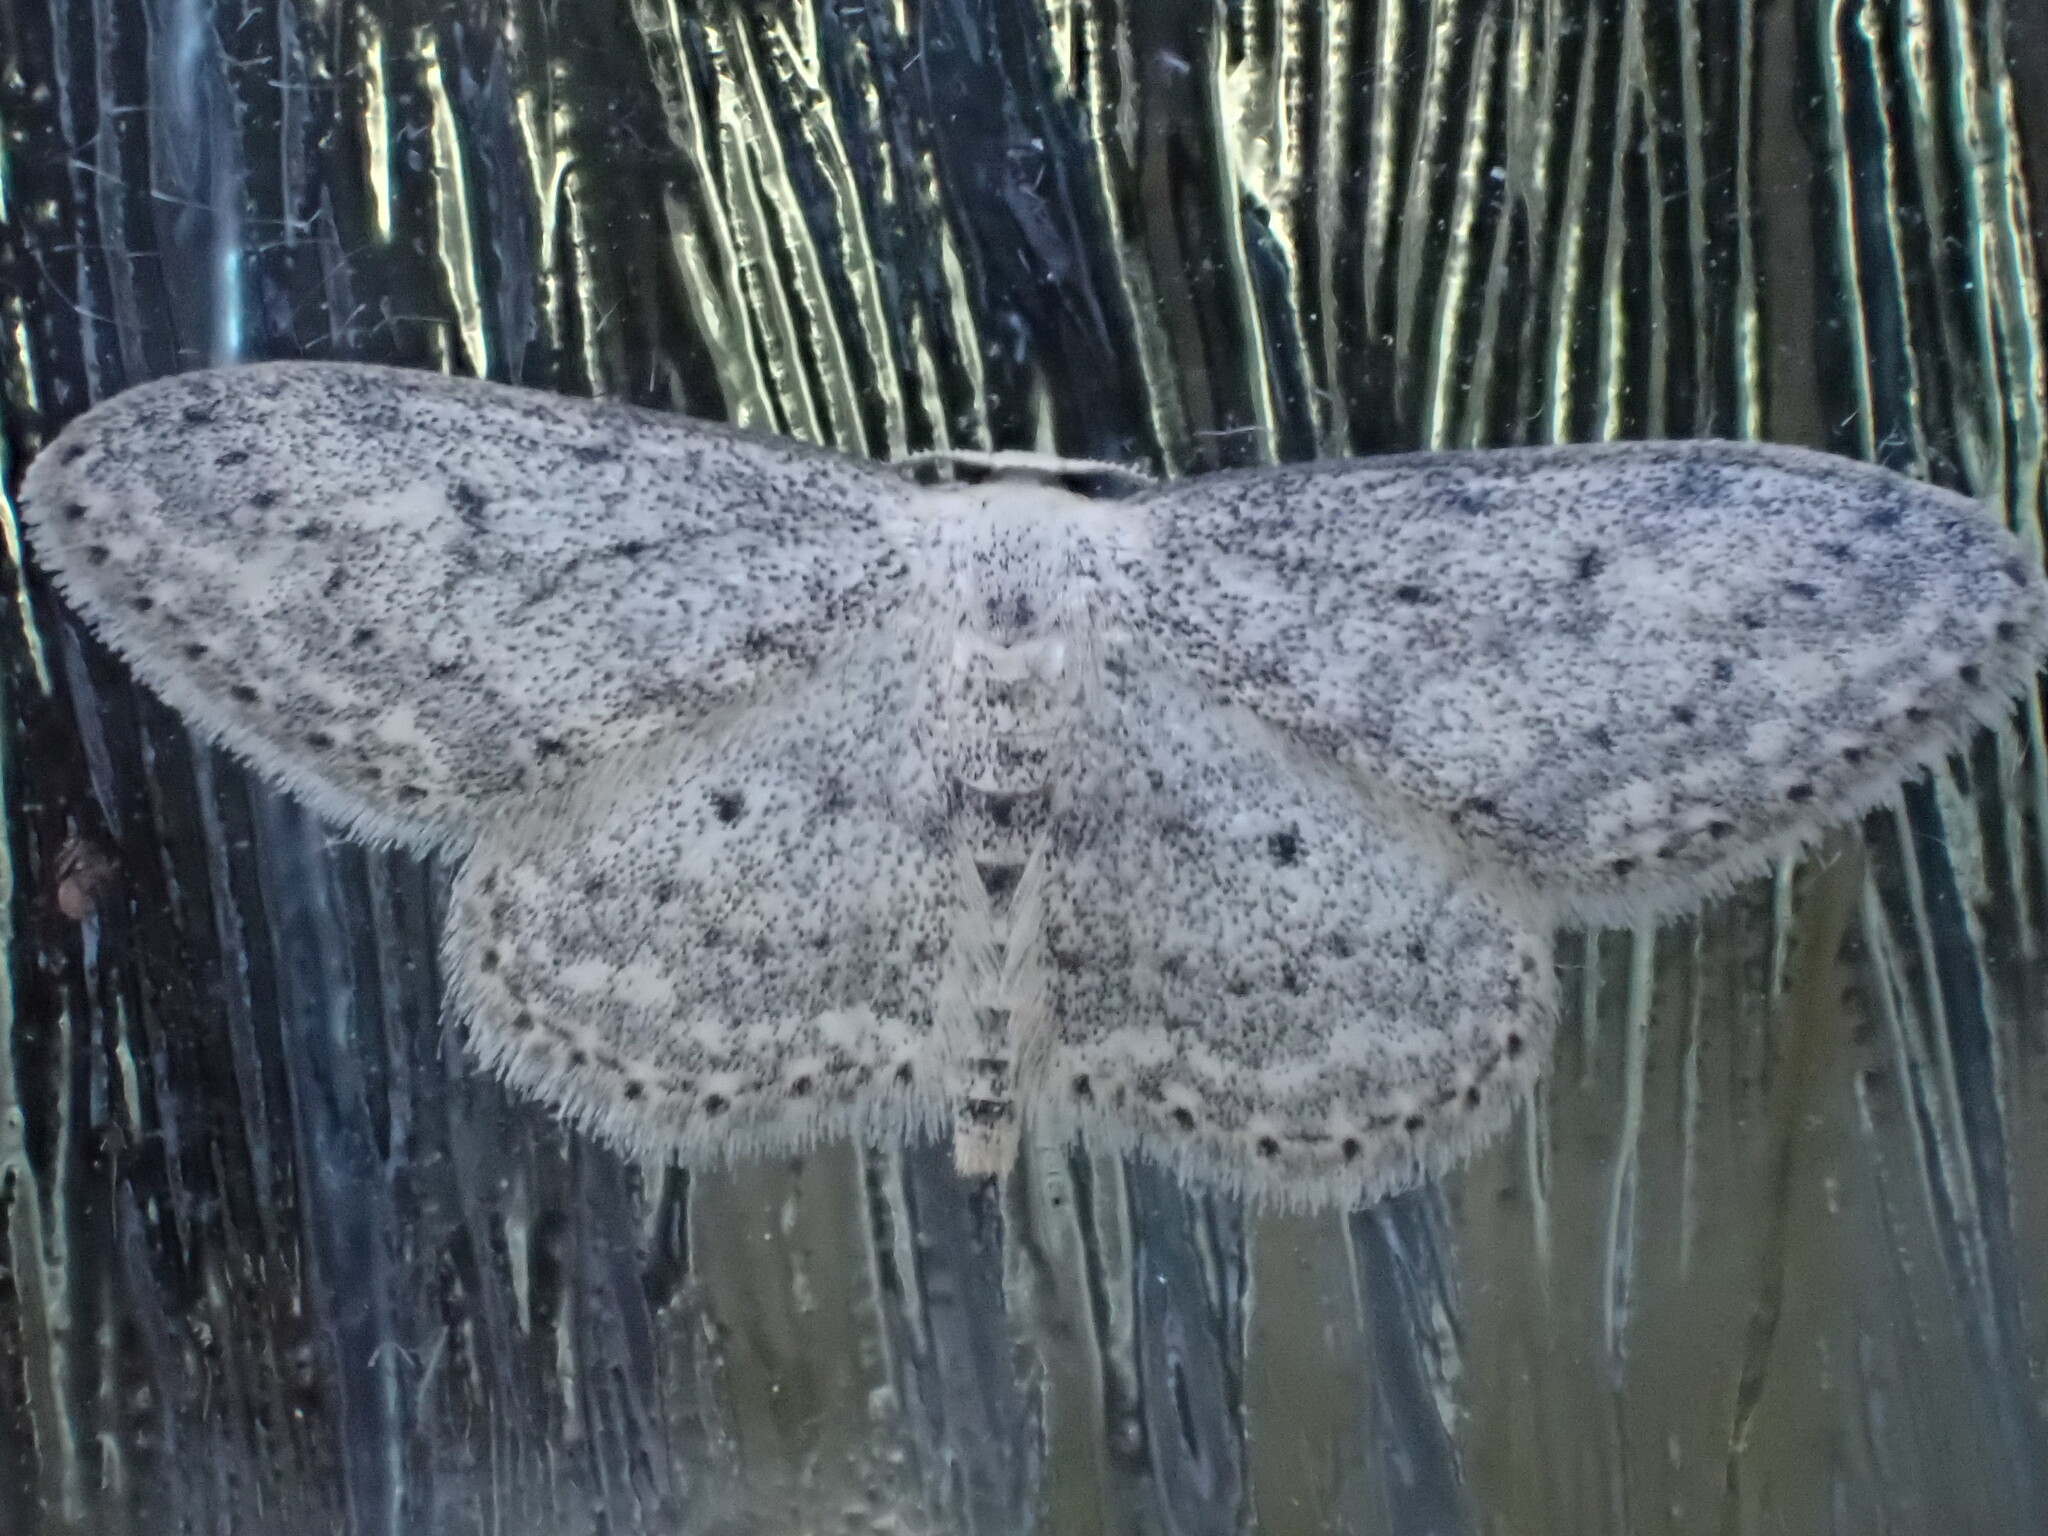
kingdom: Animalia
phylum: Arthropoda
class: Insecta
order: Lepidoptera
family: Geometridae
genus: Idaea
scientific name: Idaea seriata
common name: Small dusty wave
